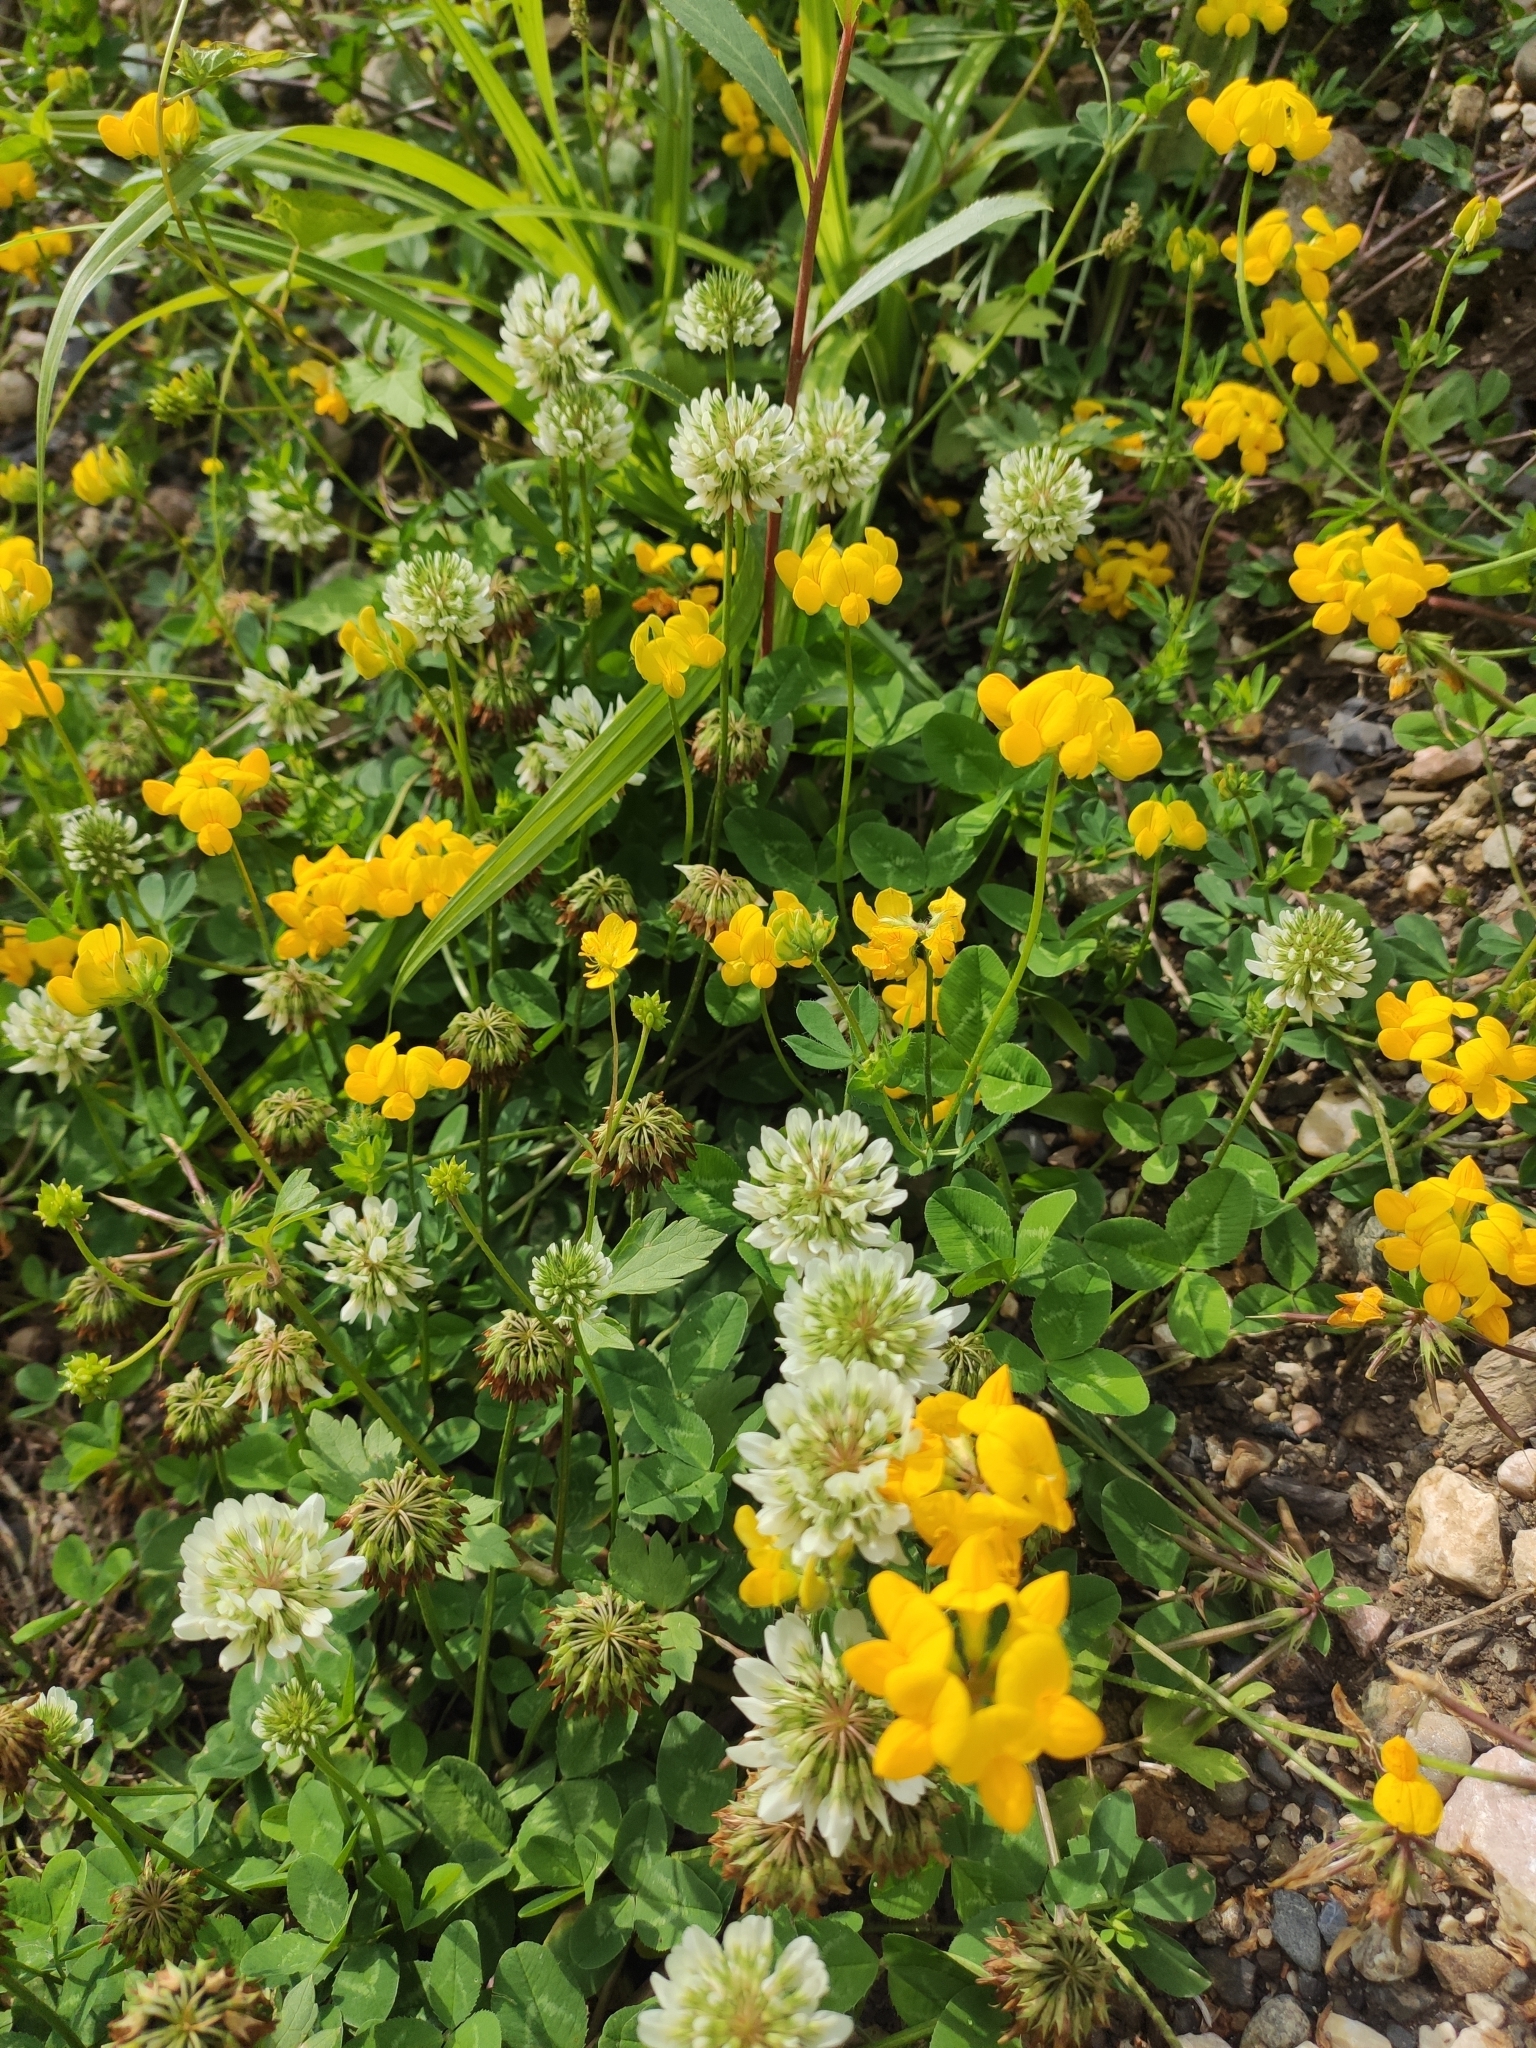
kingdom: Plantae
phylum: Tracheophyta
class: Magnoliopsida
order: Fabales
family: Fabaceae
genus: Trifolium
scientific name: Trifolium repens
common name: White clover
